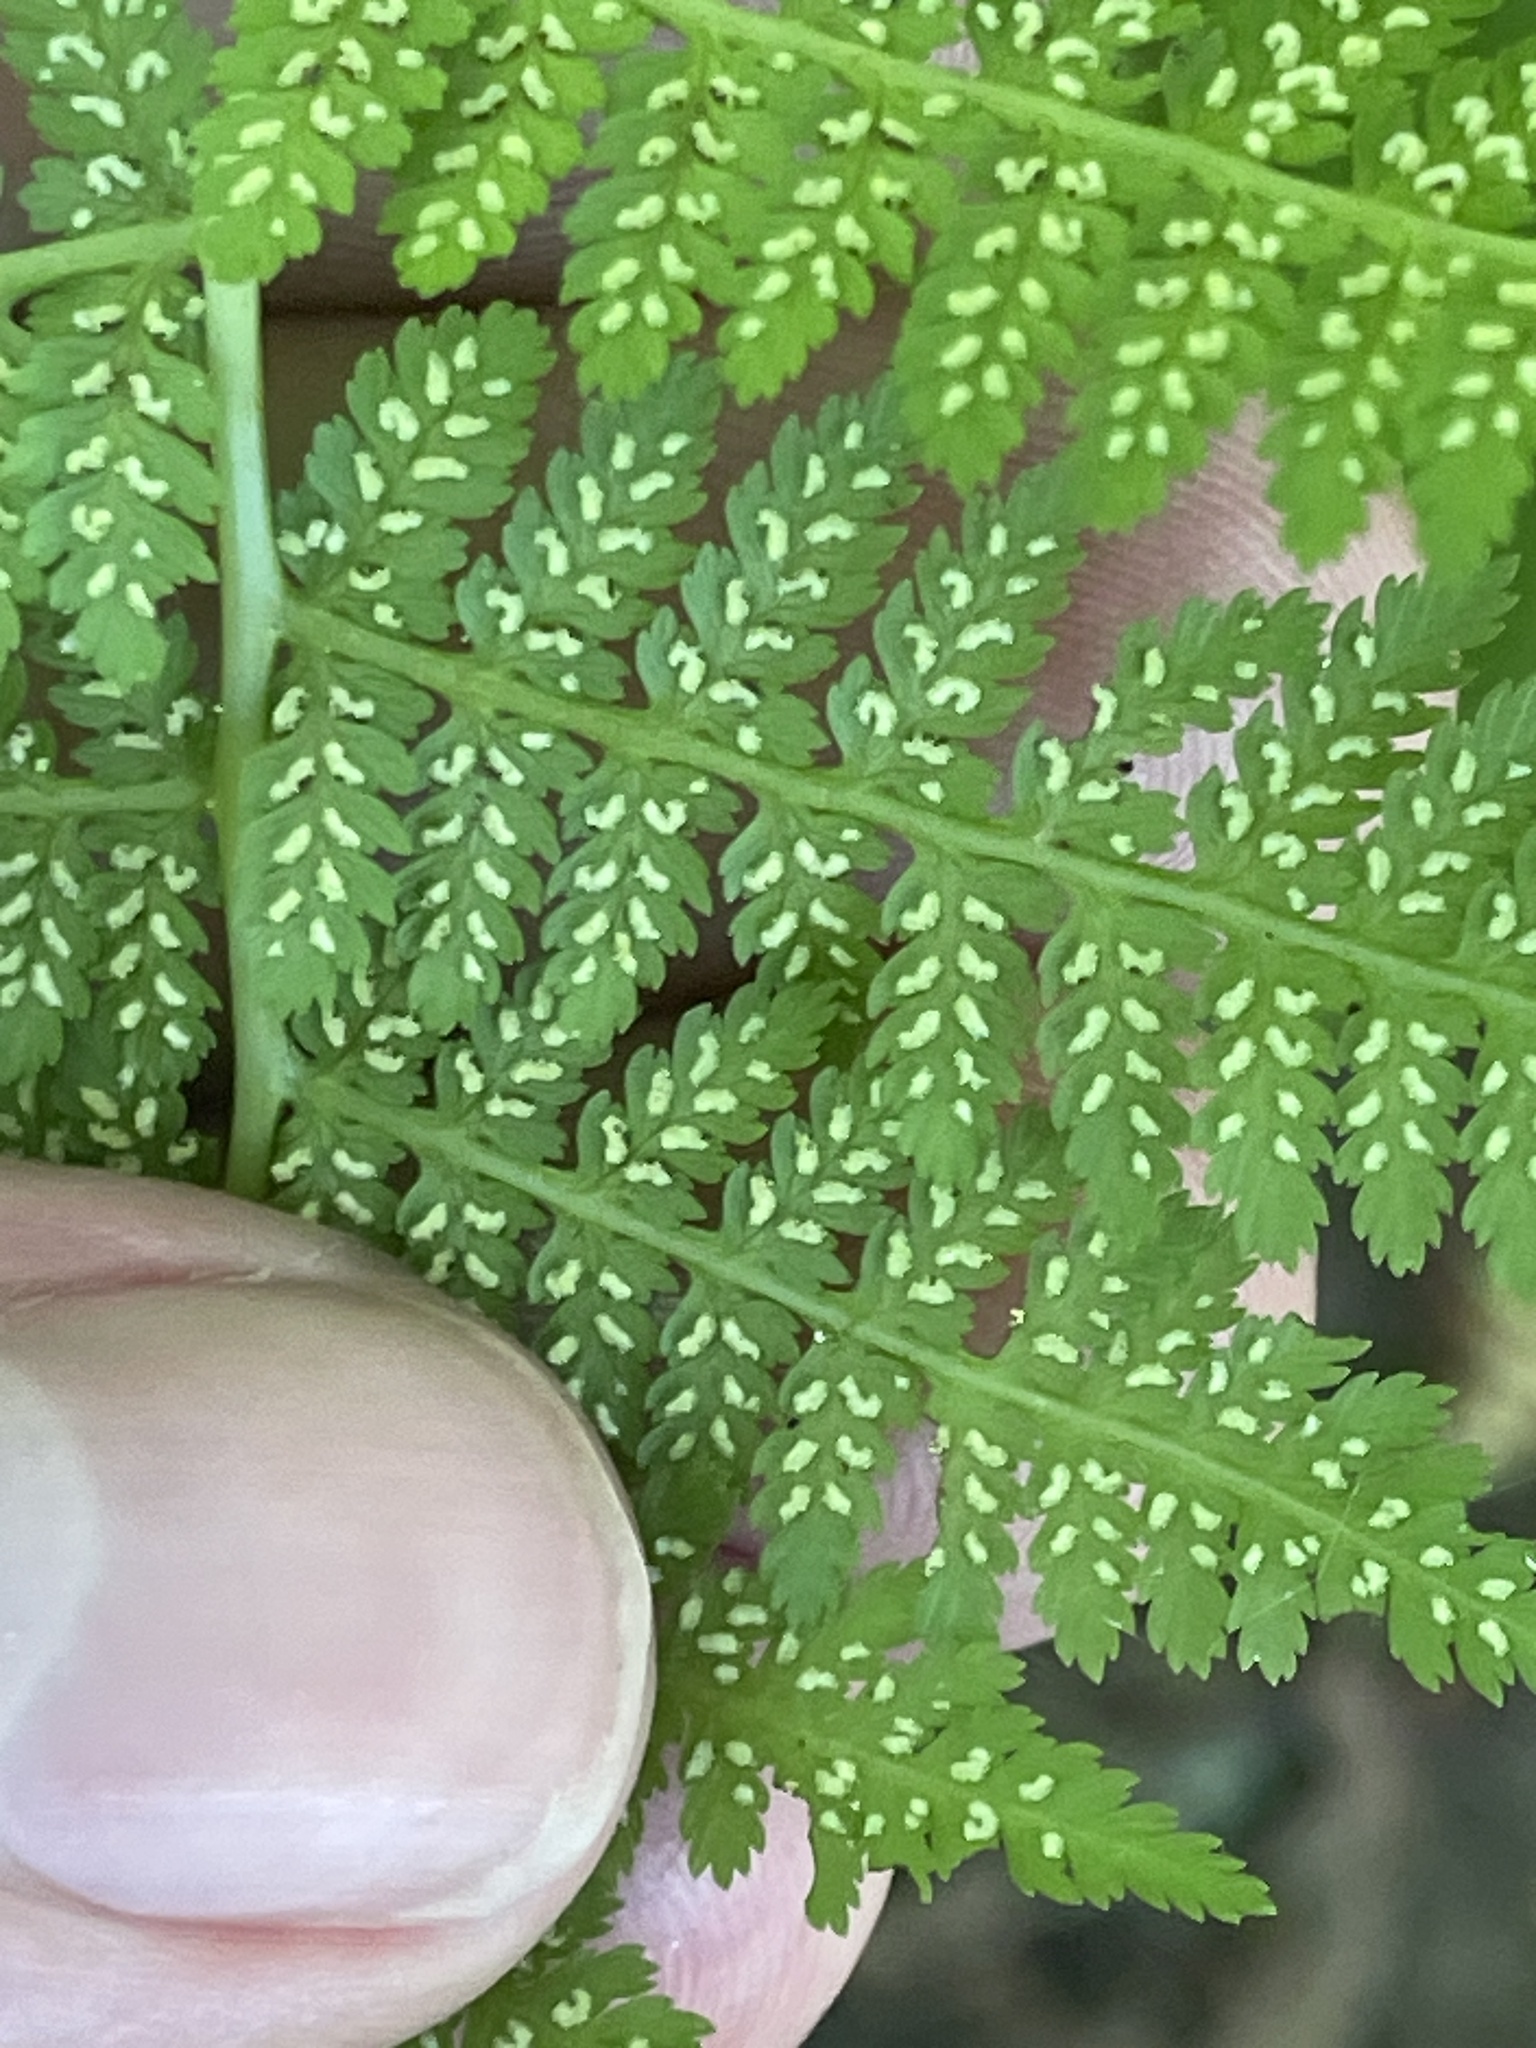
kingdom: Plantae
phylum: Tracheophyta
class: Polypodiopsida
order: Polypodiales
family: Athyriaceae
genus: Athyrium
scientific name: Athyrium asplenioides
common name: Southern lady fern
